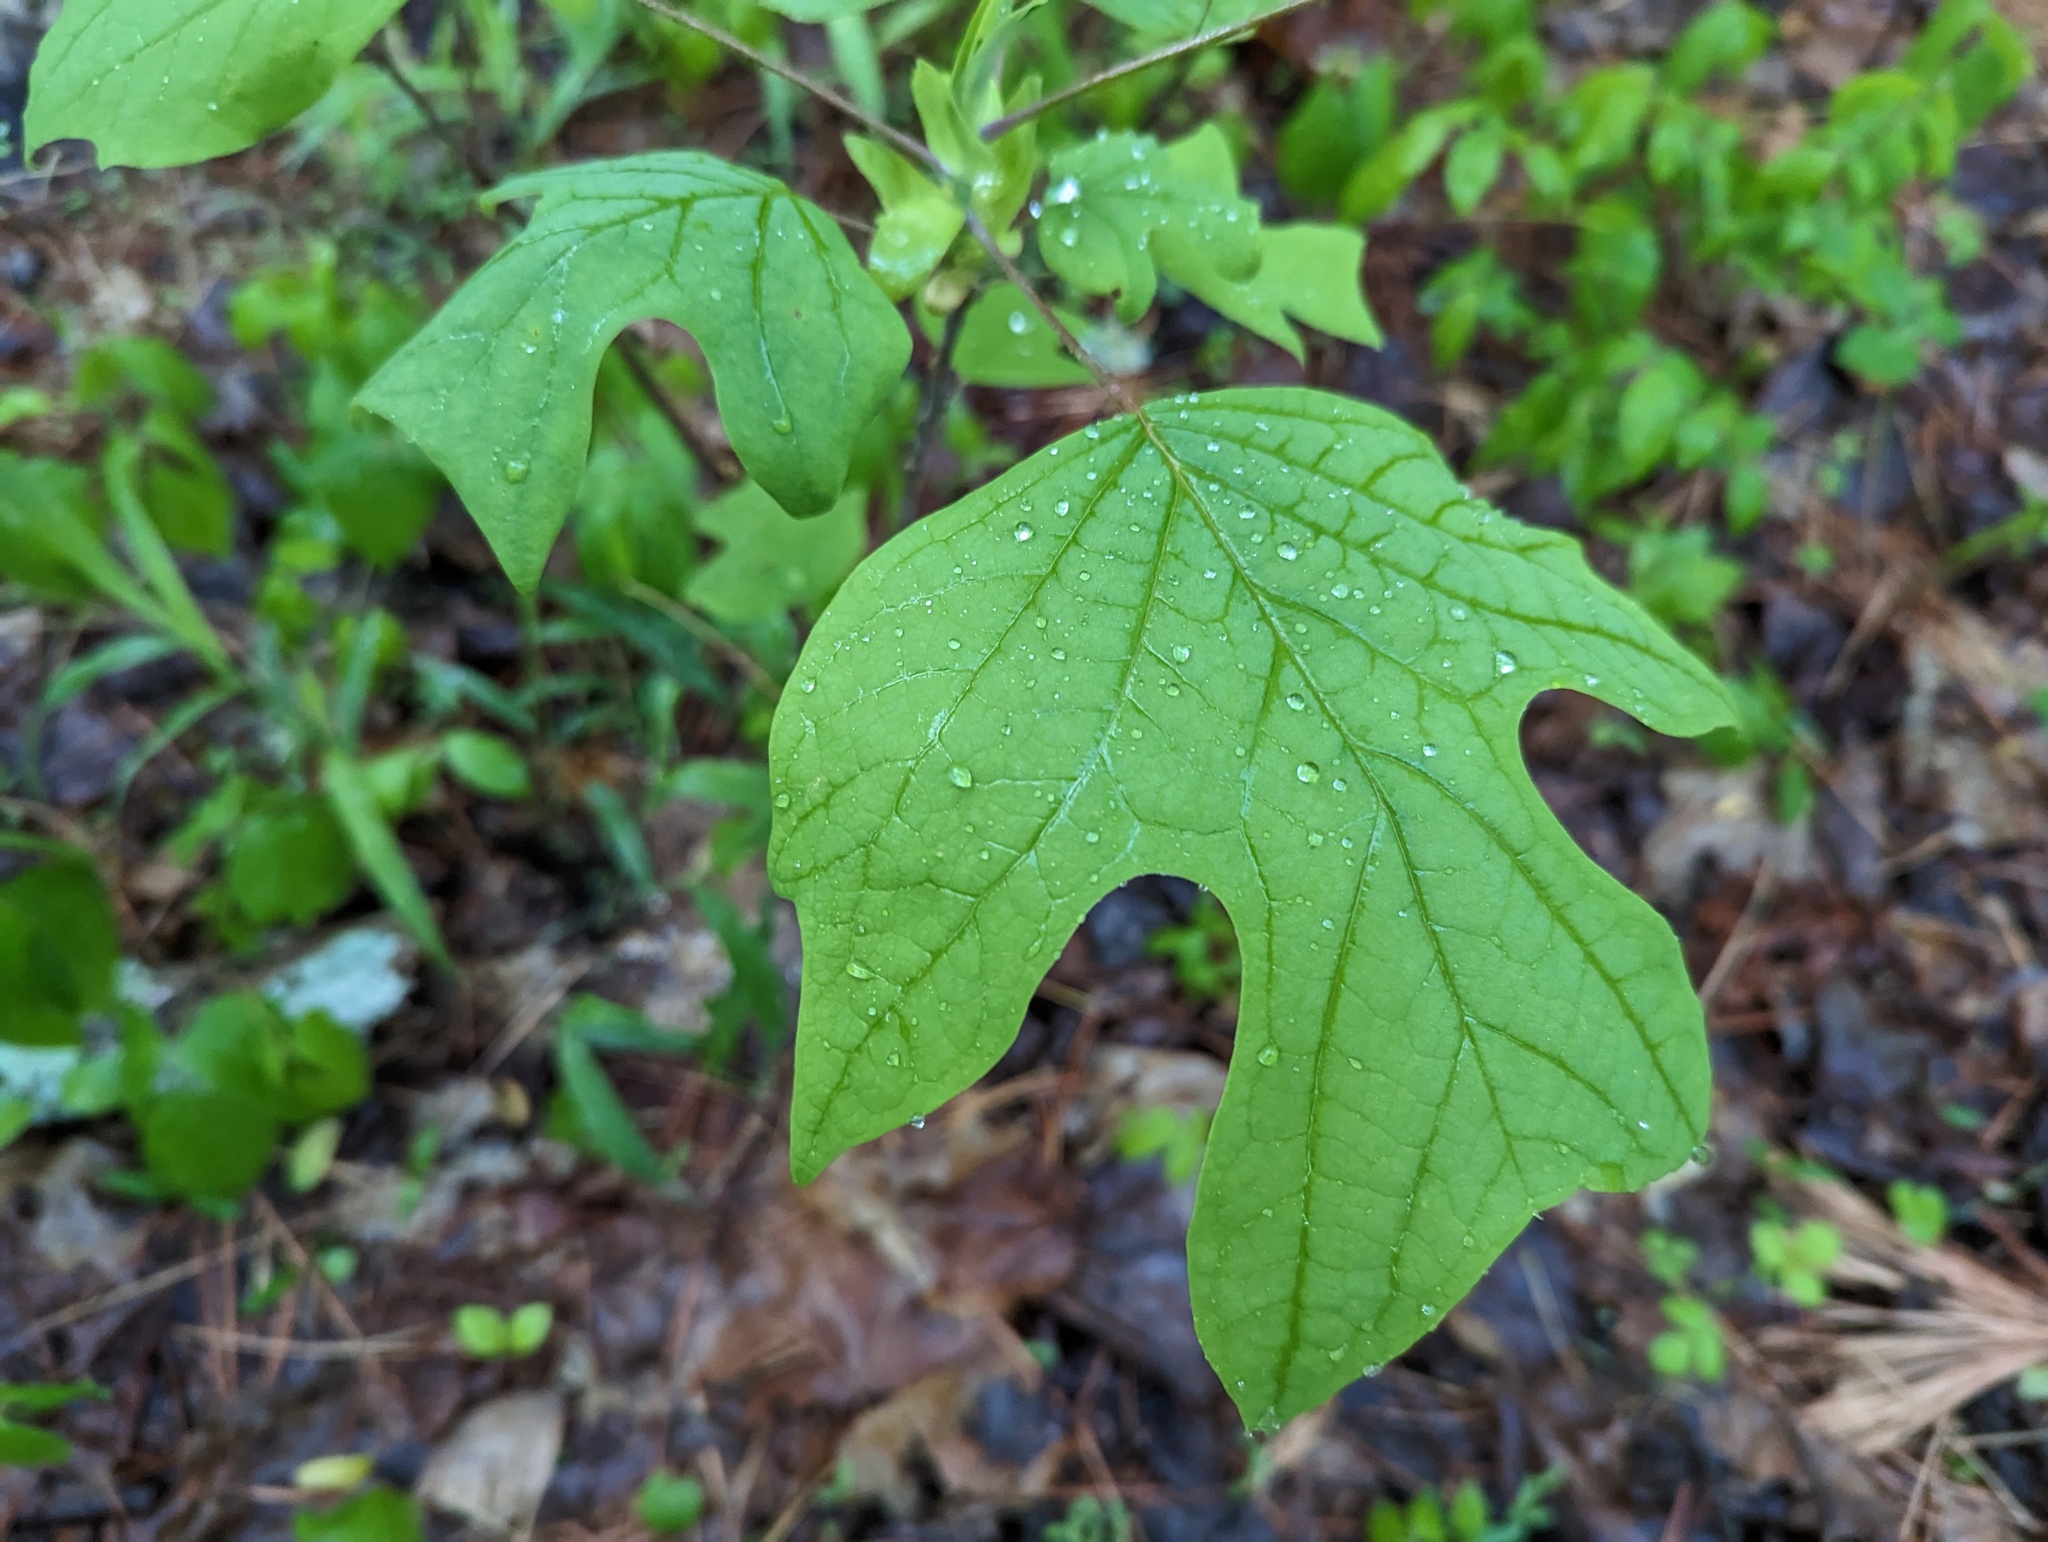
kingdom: Plantae
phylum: Tracheophyta
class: Magnoliopsida
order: Magnoliales
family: Magnoliaceae
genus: Liriodendron
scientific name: Liriodendron tulipifera
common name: Tulip tree
